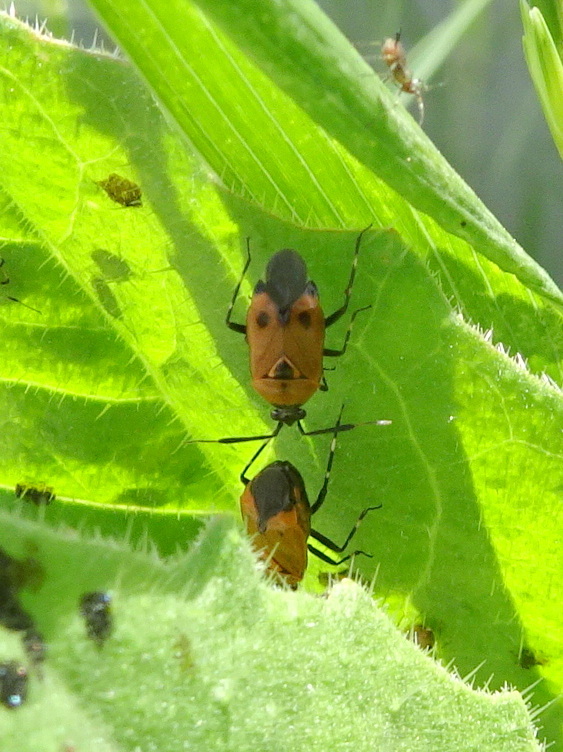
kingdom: Animalia
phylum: Arthropoda
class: Insecta
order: Hemiptera
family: Miridae
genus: Deraeocoris
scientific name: Deraeocoris punctum
